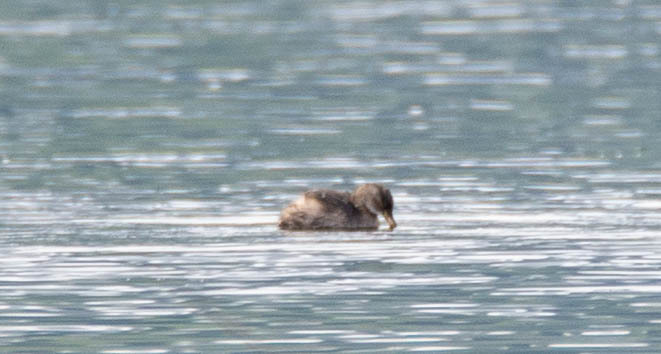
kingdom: Animalia
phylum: Chordata
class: Aves
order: Podicipediformes
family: Podicipedidae
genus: Tachybaptus
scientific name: Tachybaptus ruficollis
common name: Little grebe
